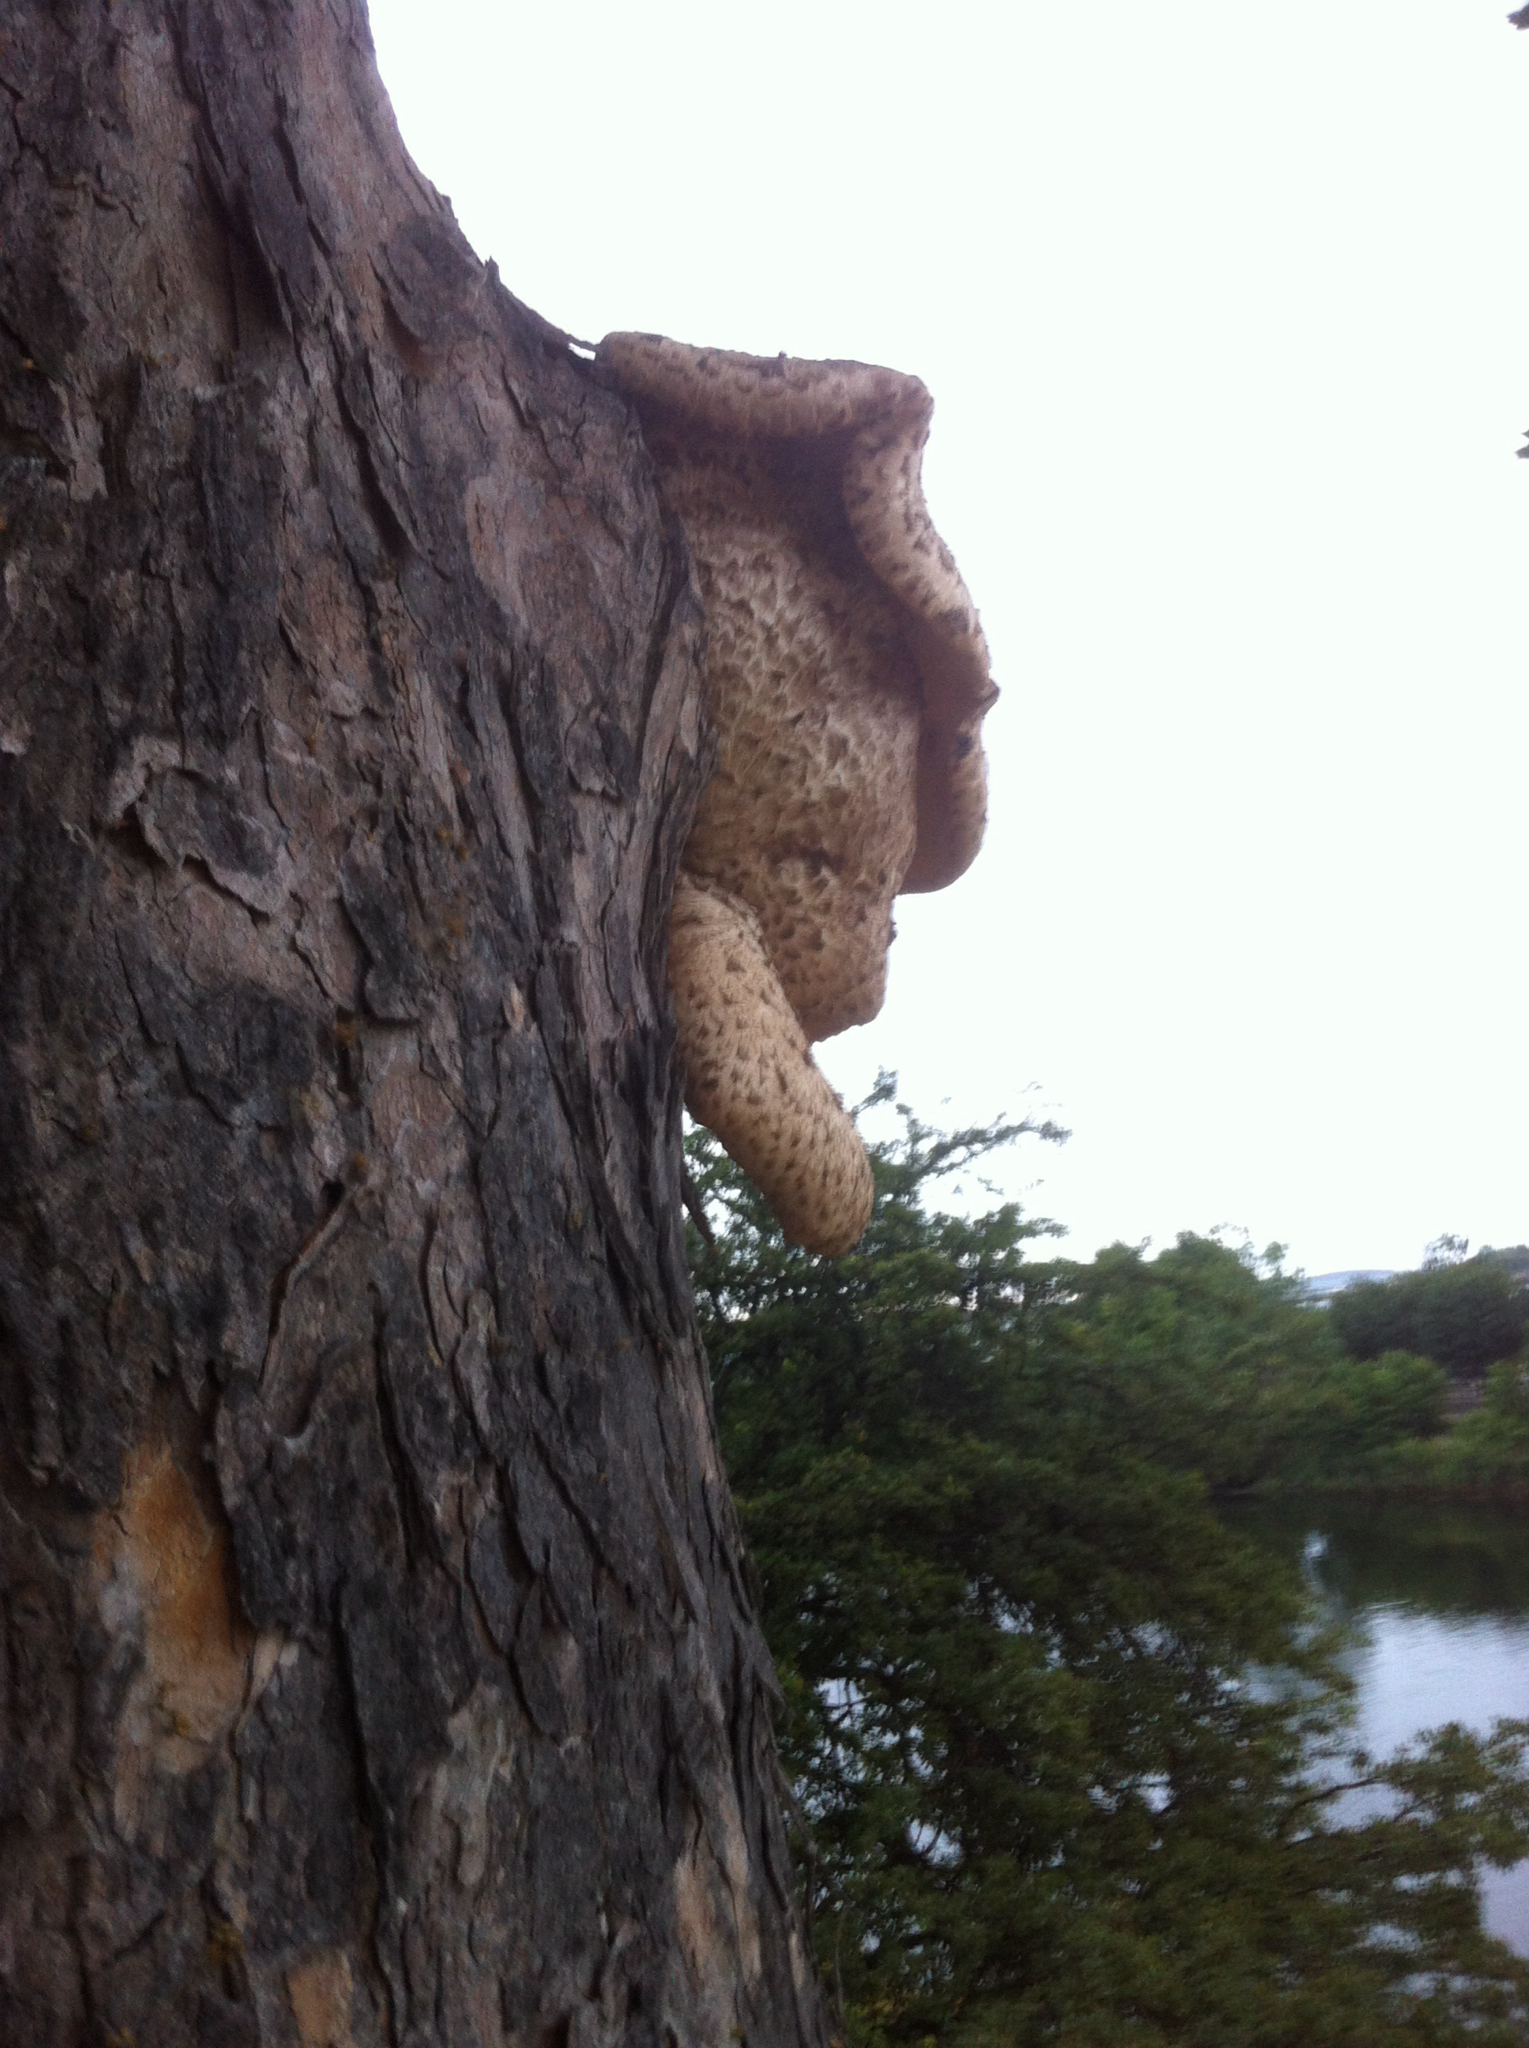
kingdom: Fungi
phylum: Basidiomycota
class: Agaricomycetes
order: Polyporales
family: Polyporaceae
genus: Cerioporus
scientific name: Cerioporus squamosus
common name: Dryad's saddle
